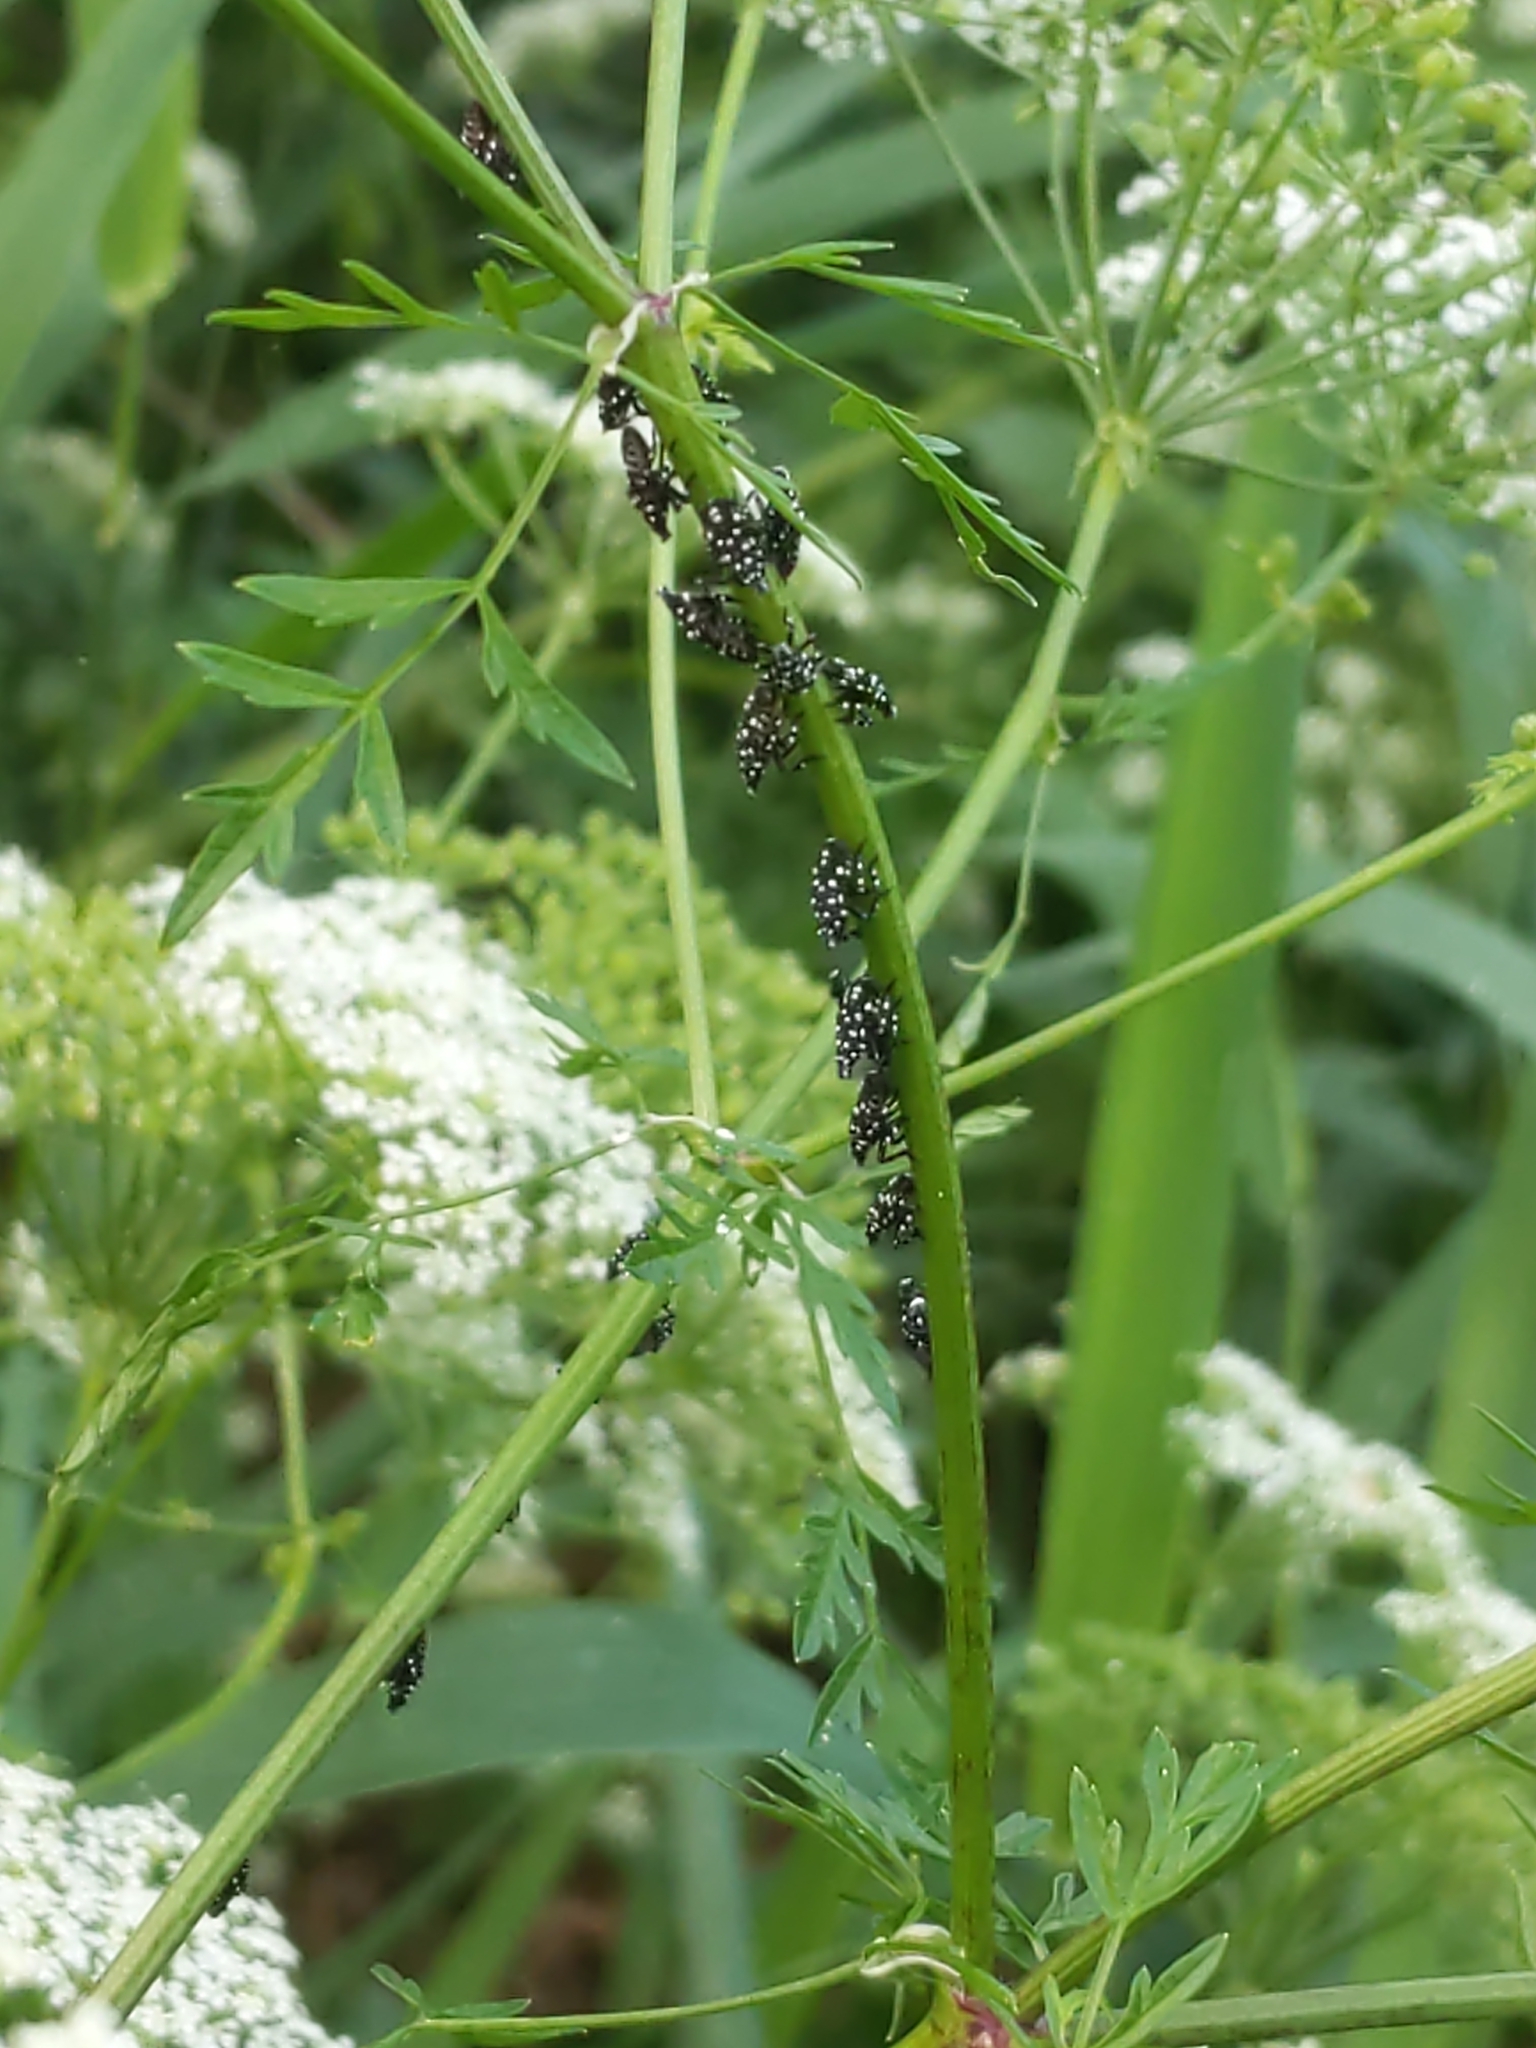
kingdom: Animalia
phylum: Arthropoda
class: Insecta
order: Hemiptera
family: Fulgoridae
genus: Lycorma
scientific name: Lycorma delicatula
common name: Spotted lanternfly
